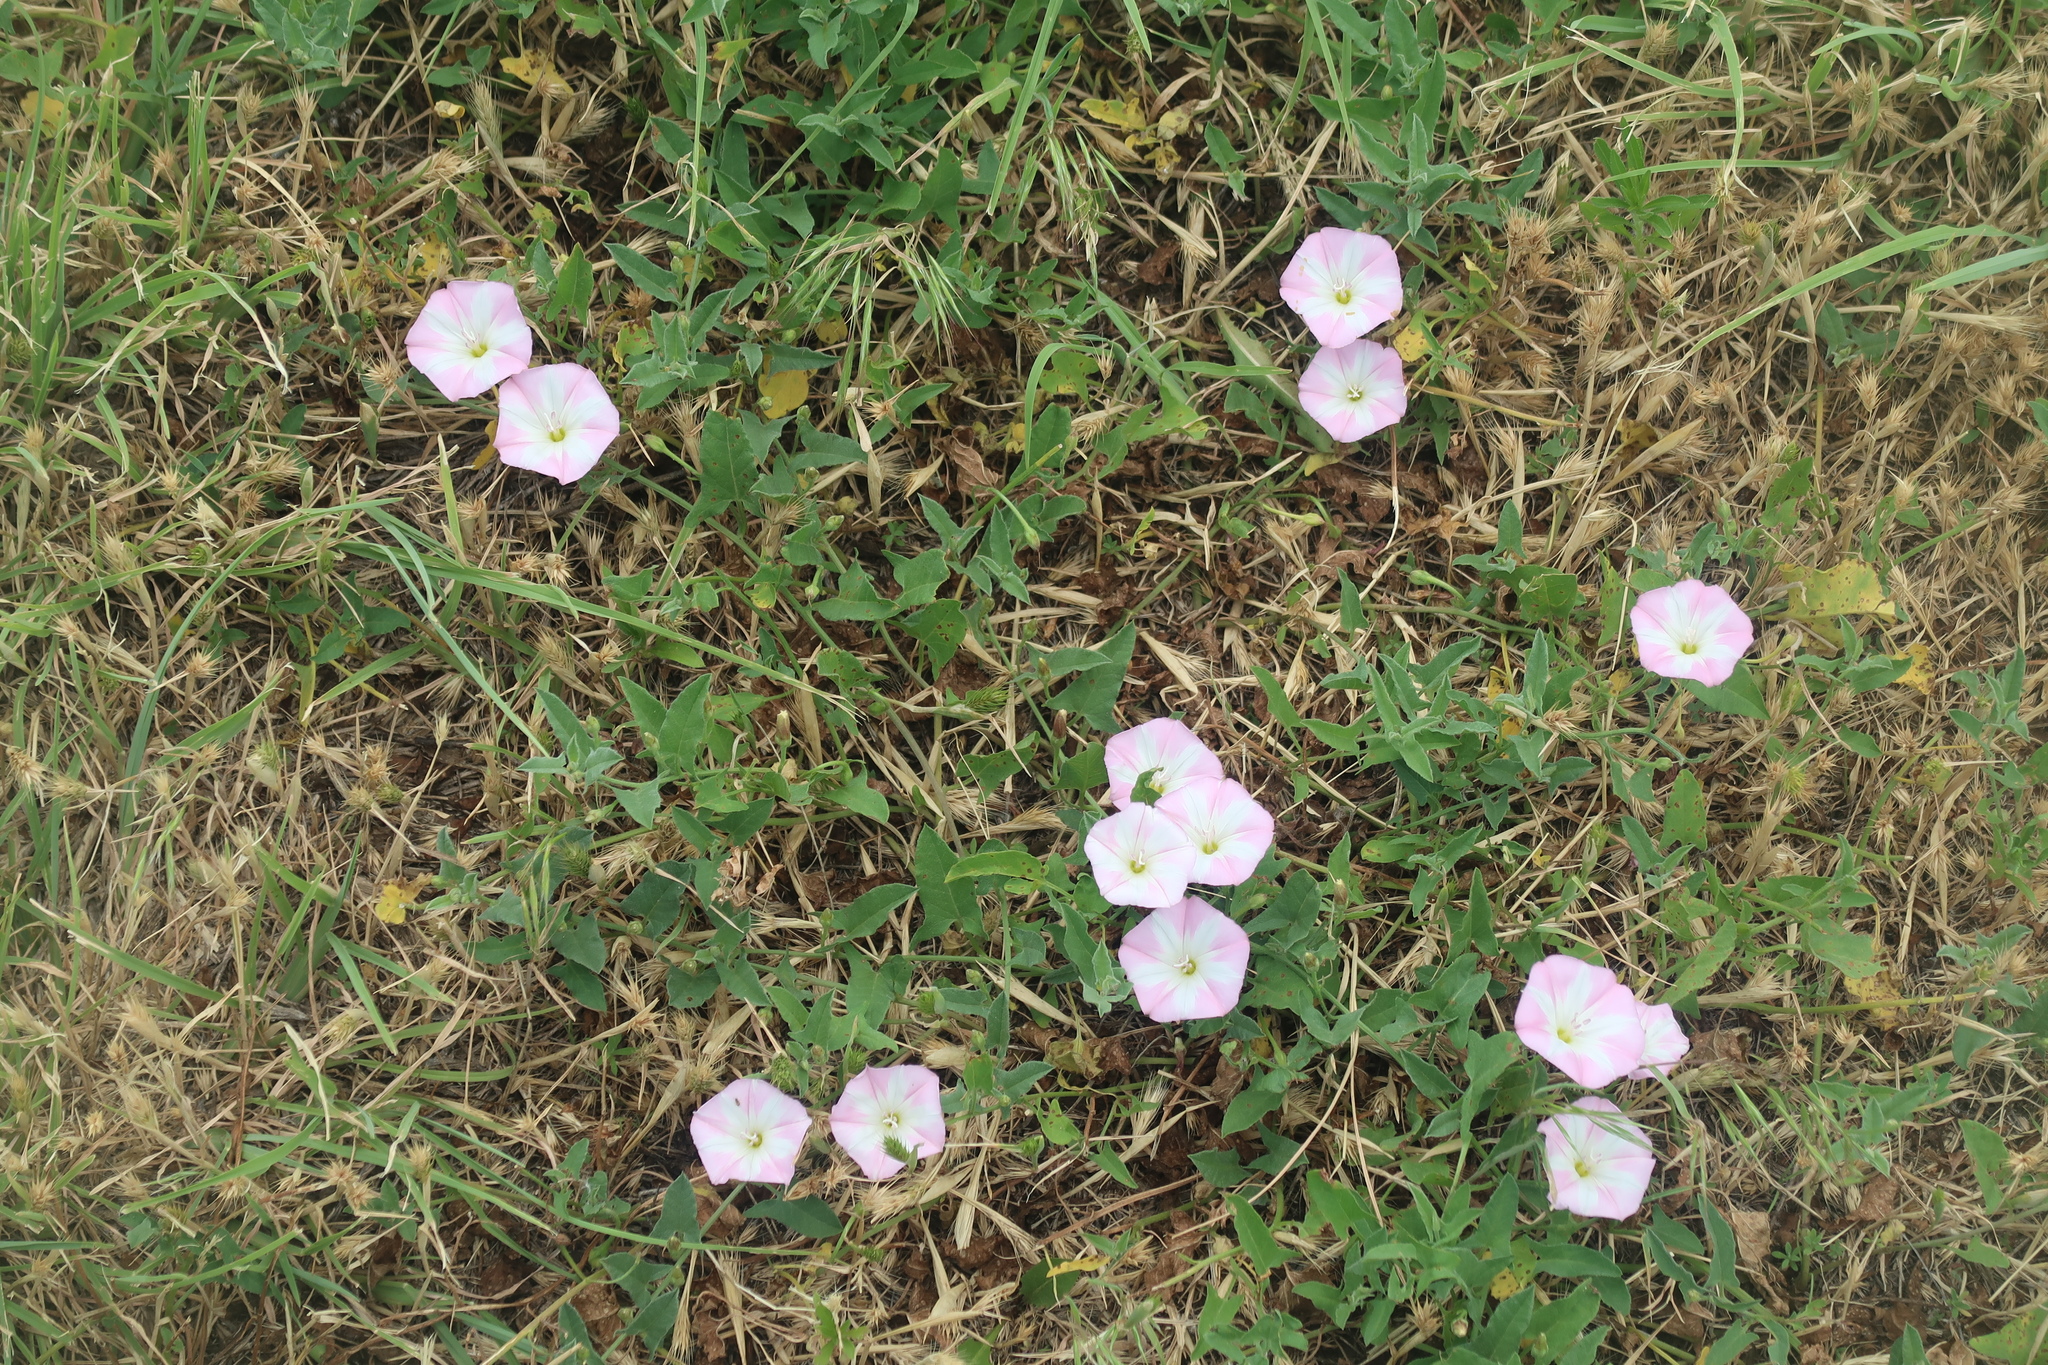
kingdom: Plantae
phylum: Tracheophyta
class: Magnoliopsida
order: Solanales
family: Convolvulaceae
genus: Convolvulus
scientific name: Convolvulus arvensis
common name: Field bindweed
